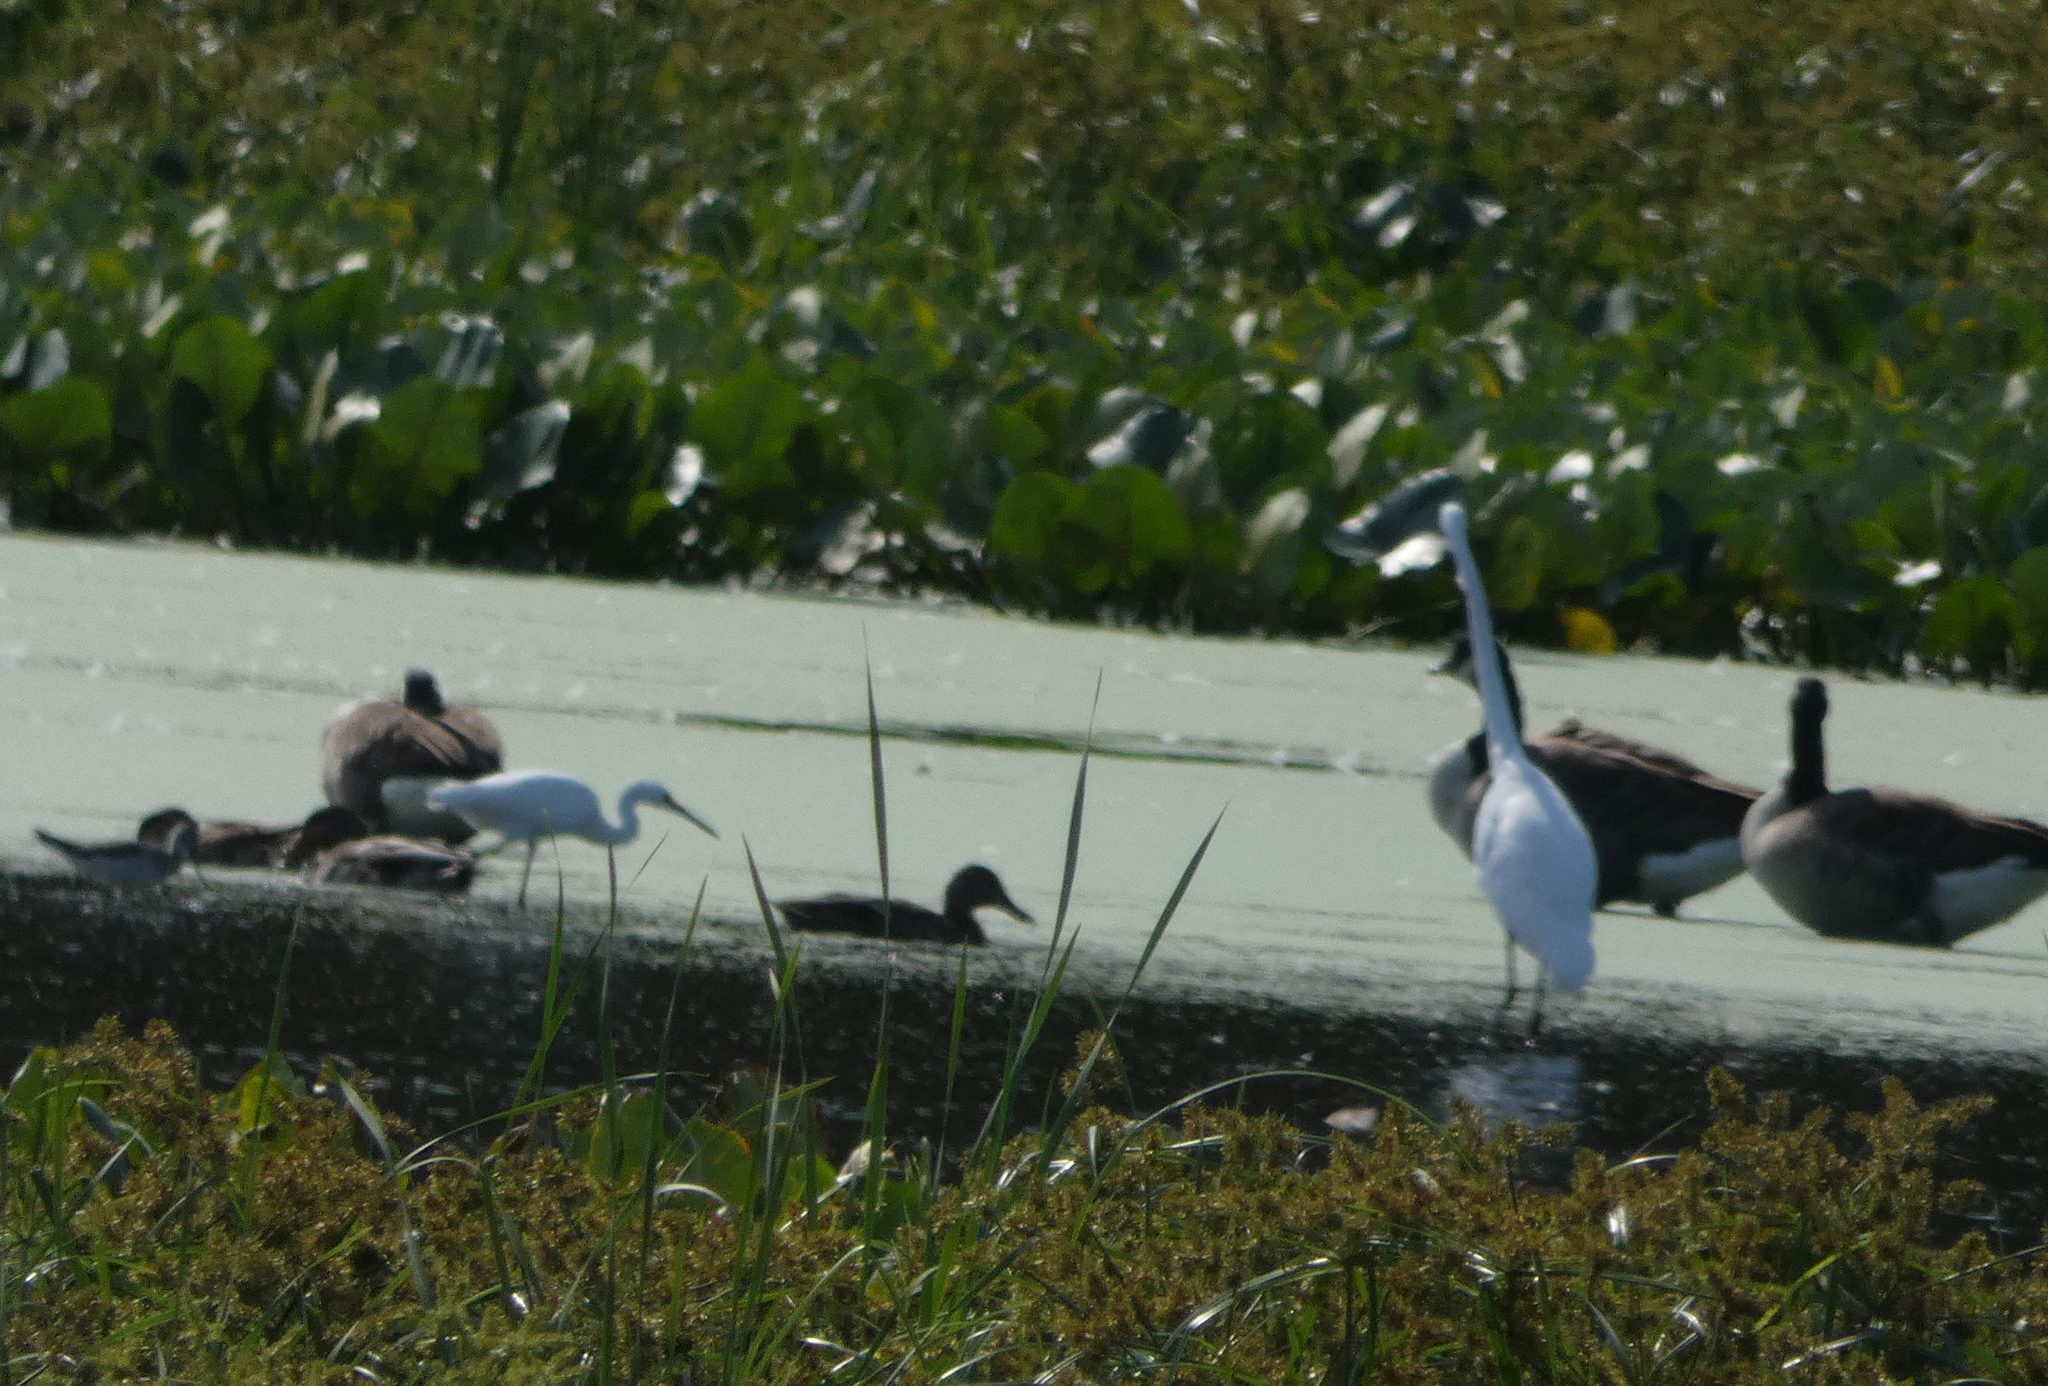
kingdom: Animalia
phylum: Chordata
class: Aves
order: Pelecaniformes
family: Ardeidae
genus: Egretta
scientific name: Egretta thula
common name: Snowy egret
